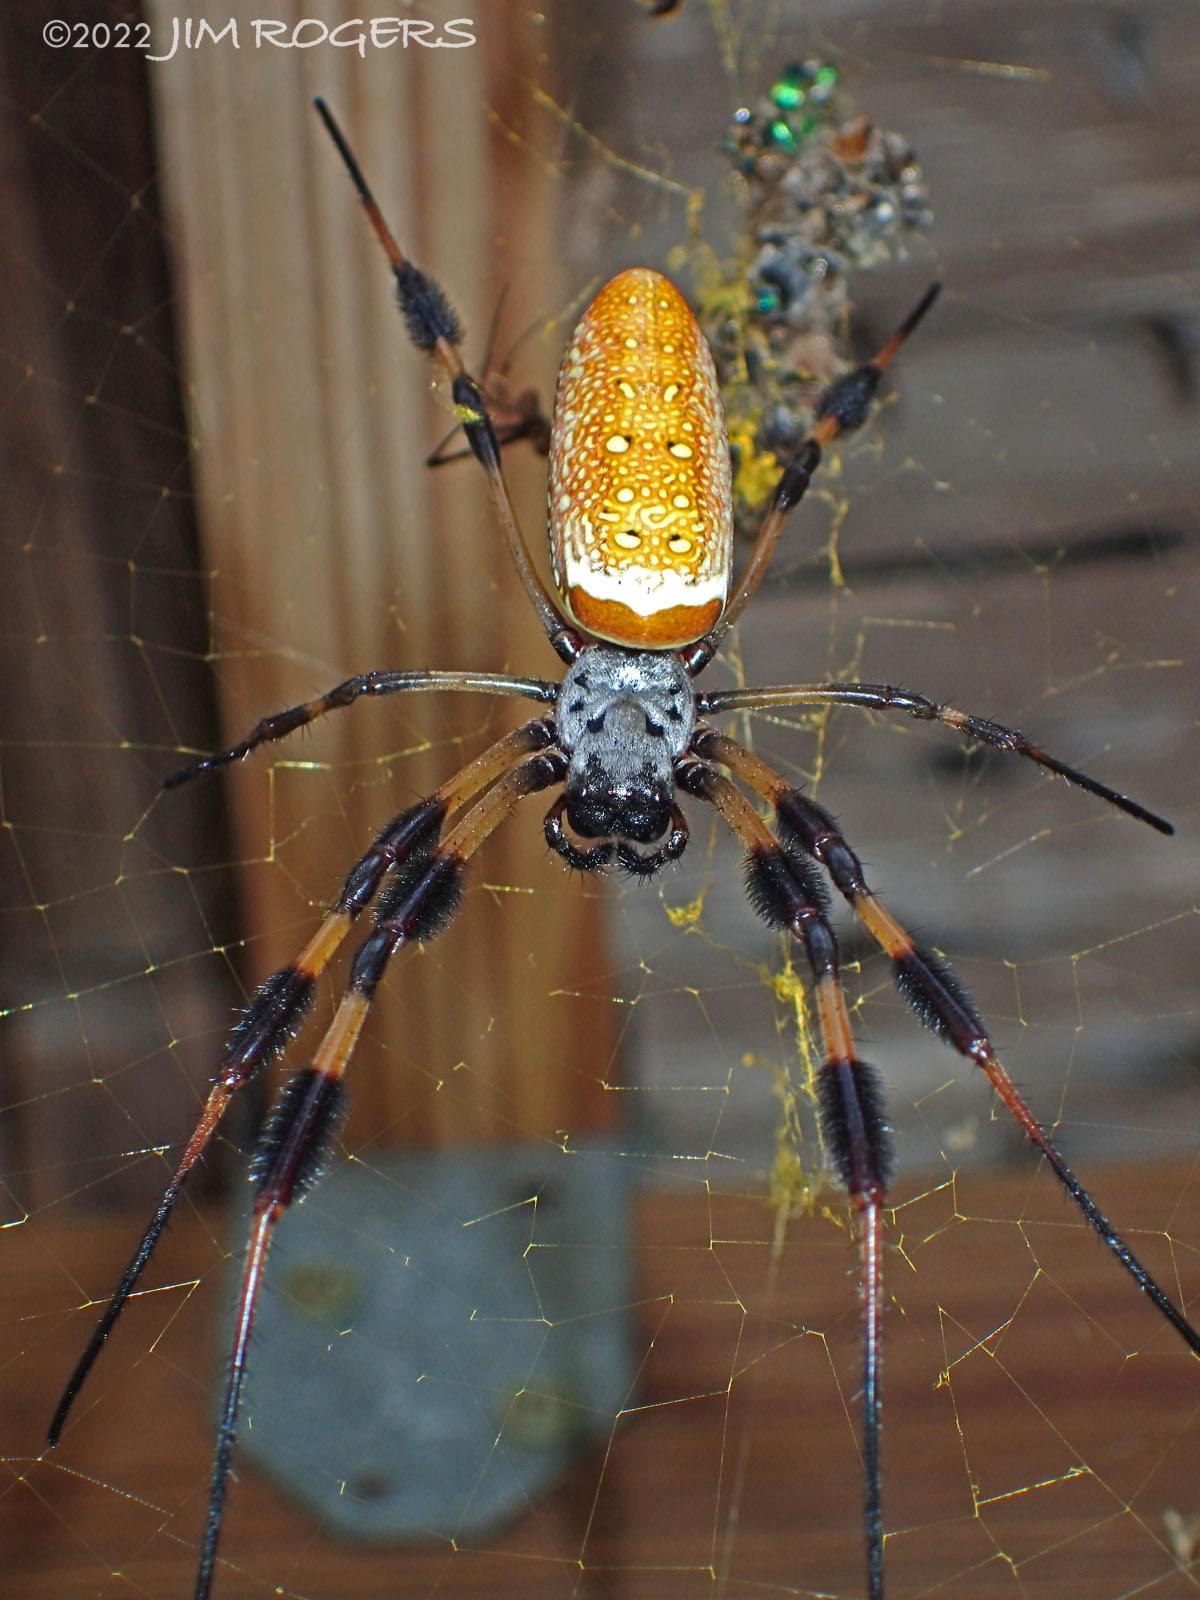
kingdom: Animalia
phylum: Arthropoda
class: Arachnida
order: Araneae
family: Araneidae
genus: Trichonephila
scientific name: Trichonephila clavipes
